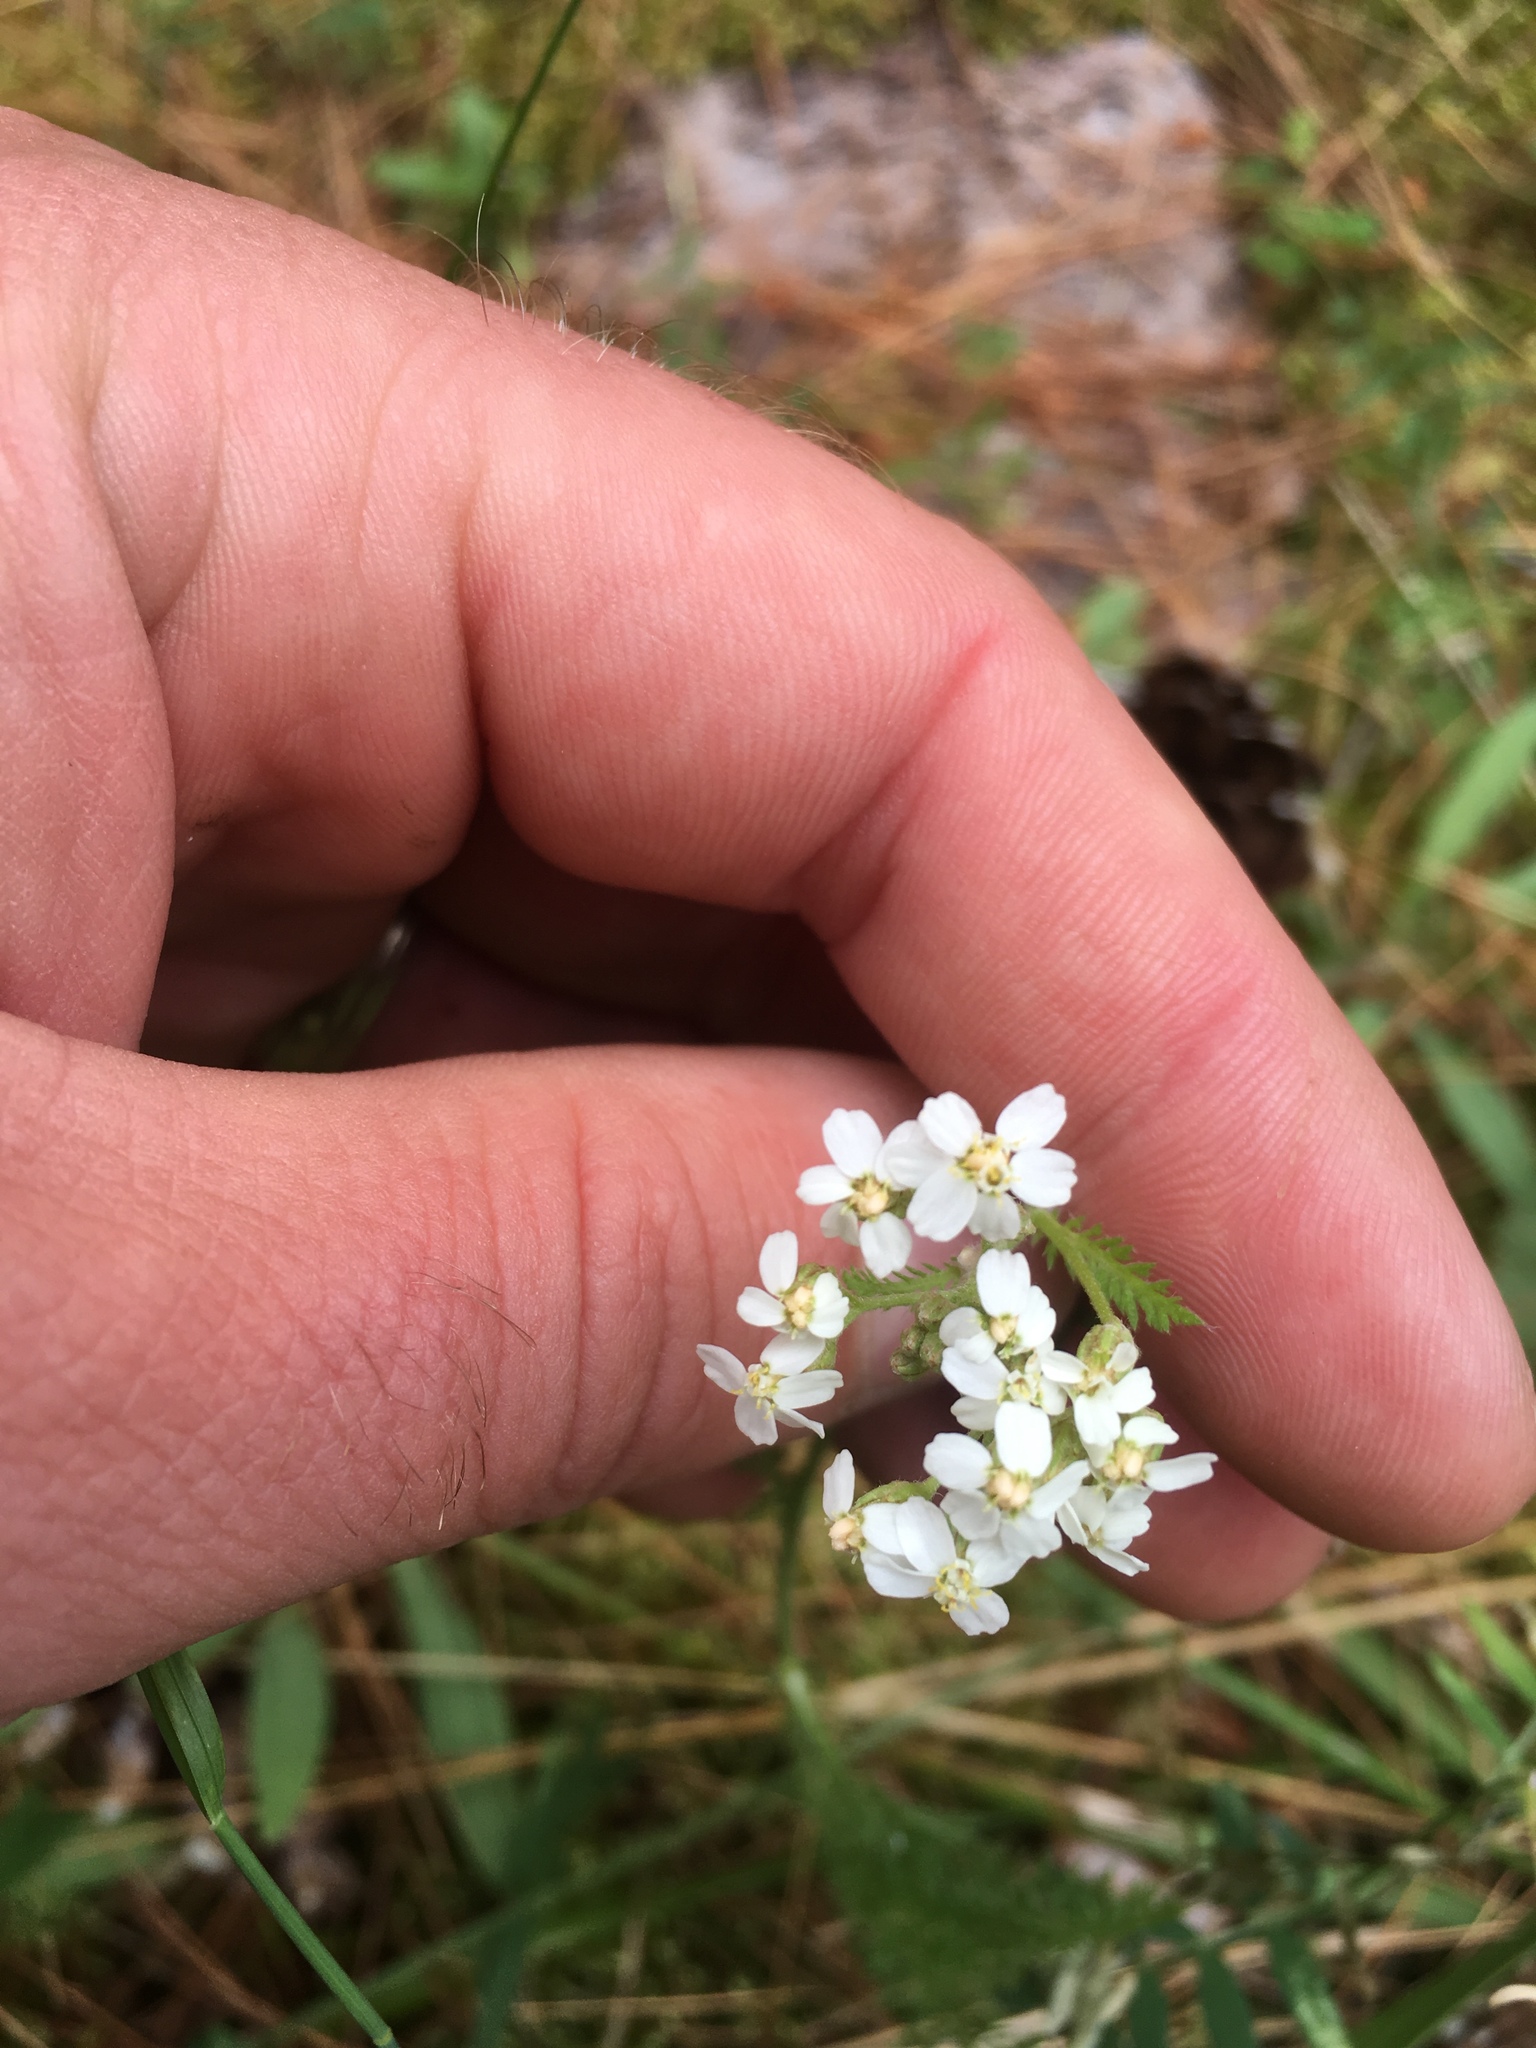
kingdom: Plantae
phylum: Tracheophyta
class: Magnoliopsida
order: Asterales
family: Asteraceae
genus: Achillea
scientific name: Achillea millefolium
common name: Yarrow
